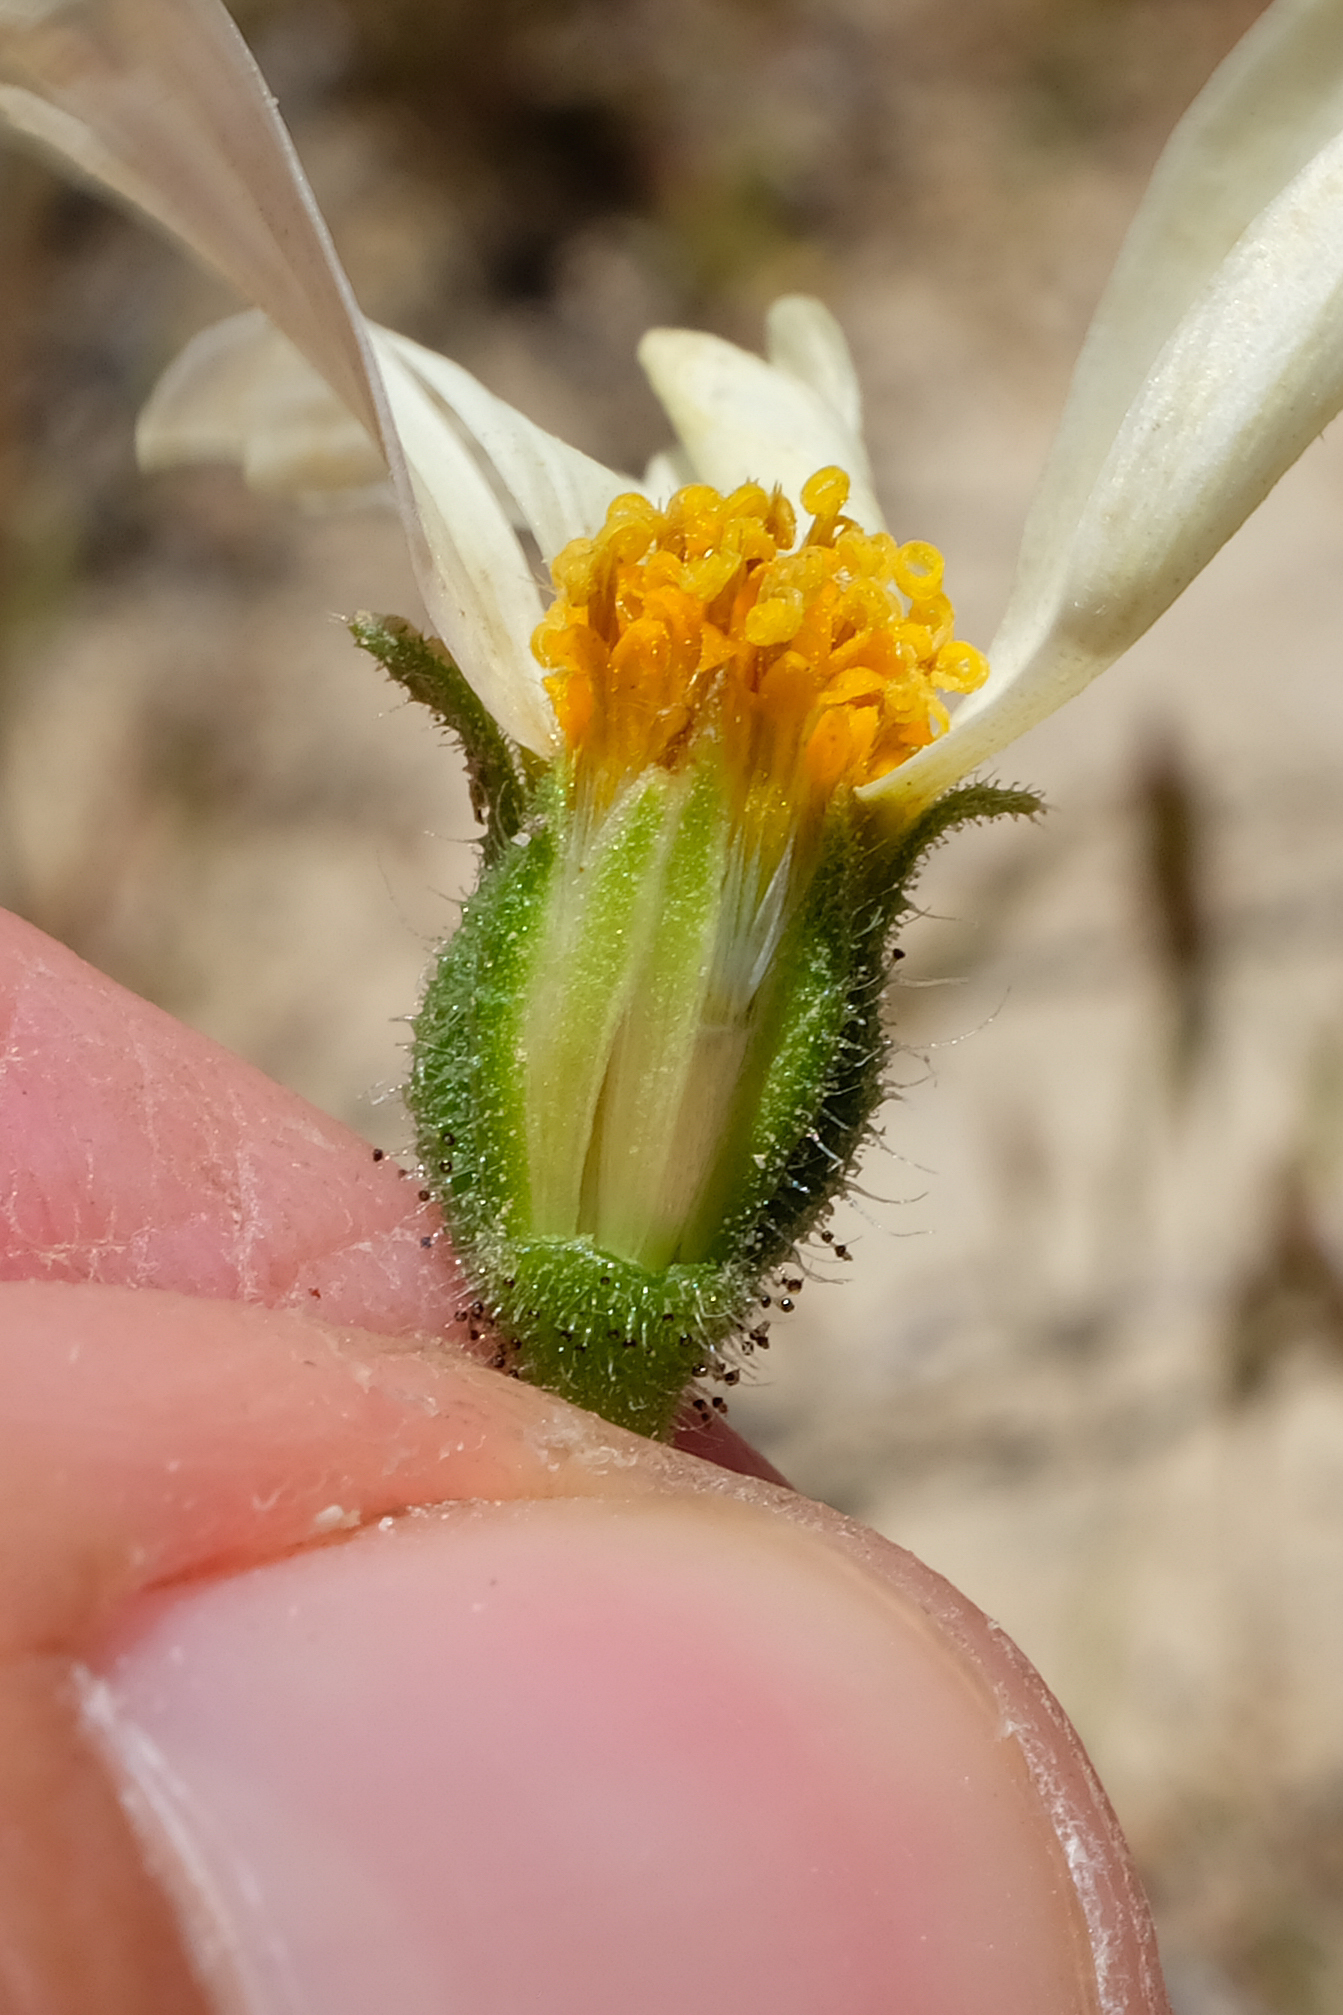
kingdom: Plantae
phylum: Tracheophyta
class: Magnoliopsida
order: Asterales
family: Asteraceae
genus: Layia
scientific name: Layia glandulosa
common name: White layia
